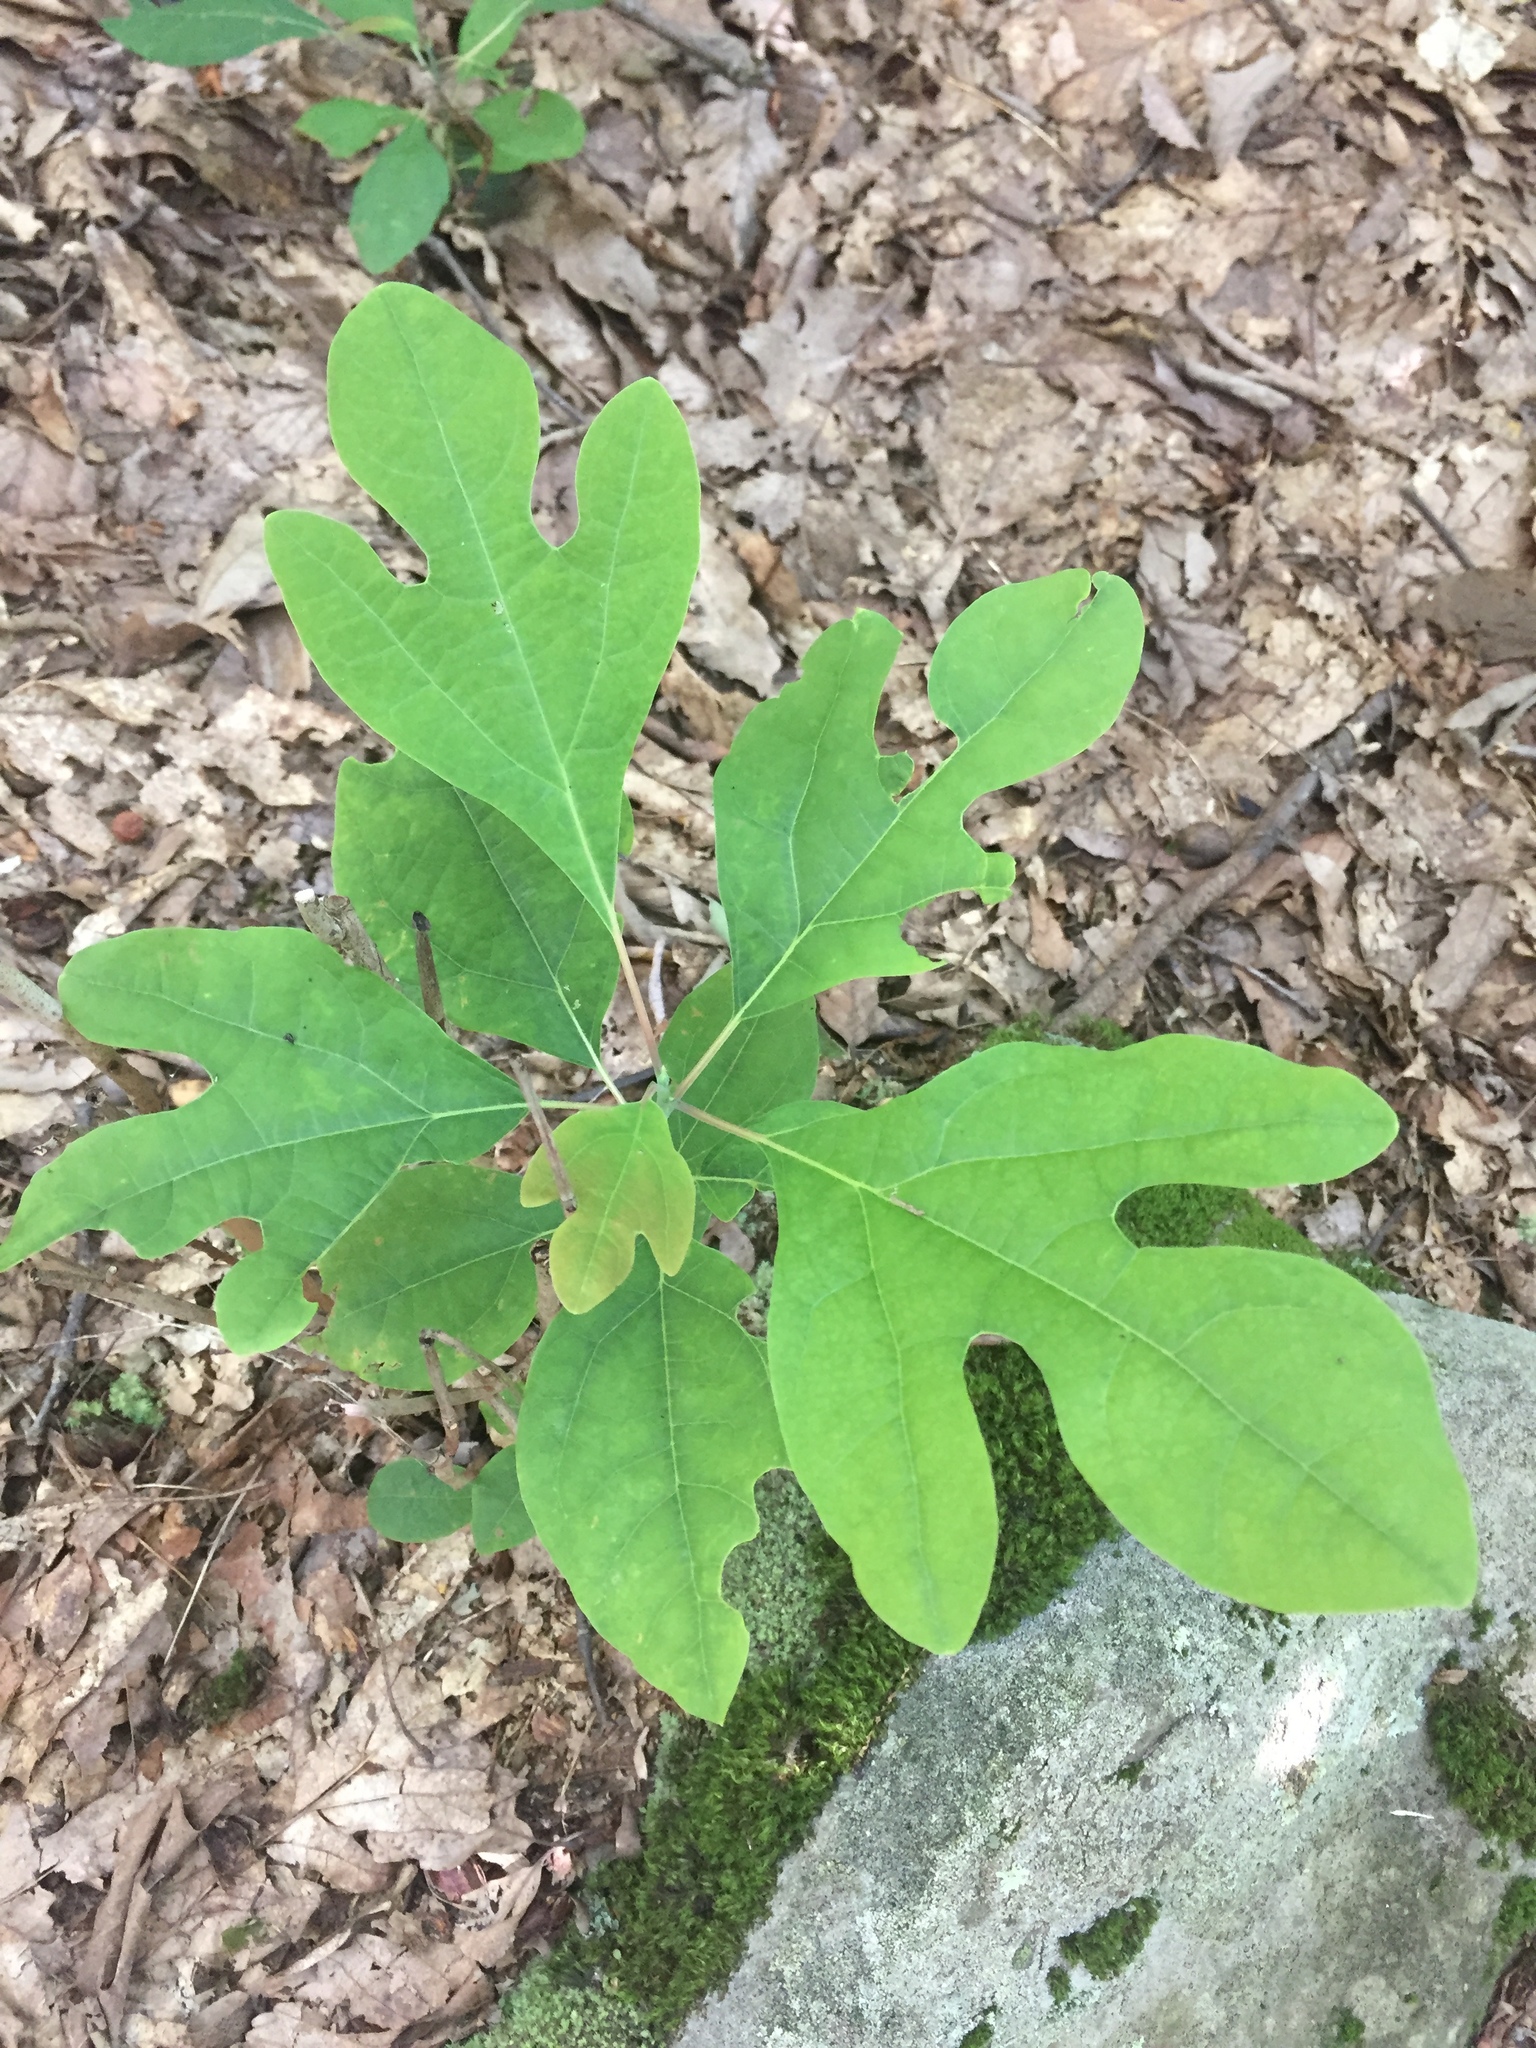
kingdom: Plantae
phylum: Tracheophyta
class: Magnoliopsida
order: Laurales
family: Lauraceae
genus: Sassafras
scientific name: Sassafras albidum
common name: Sassafras
